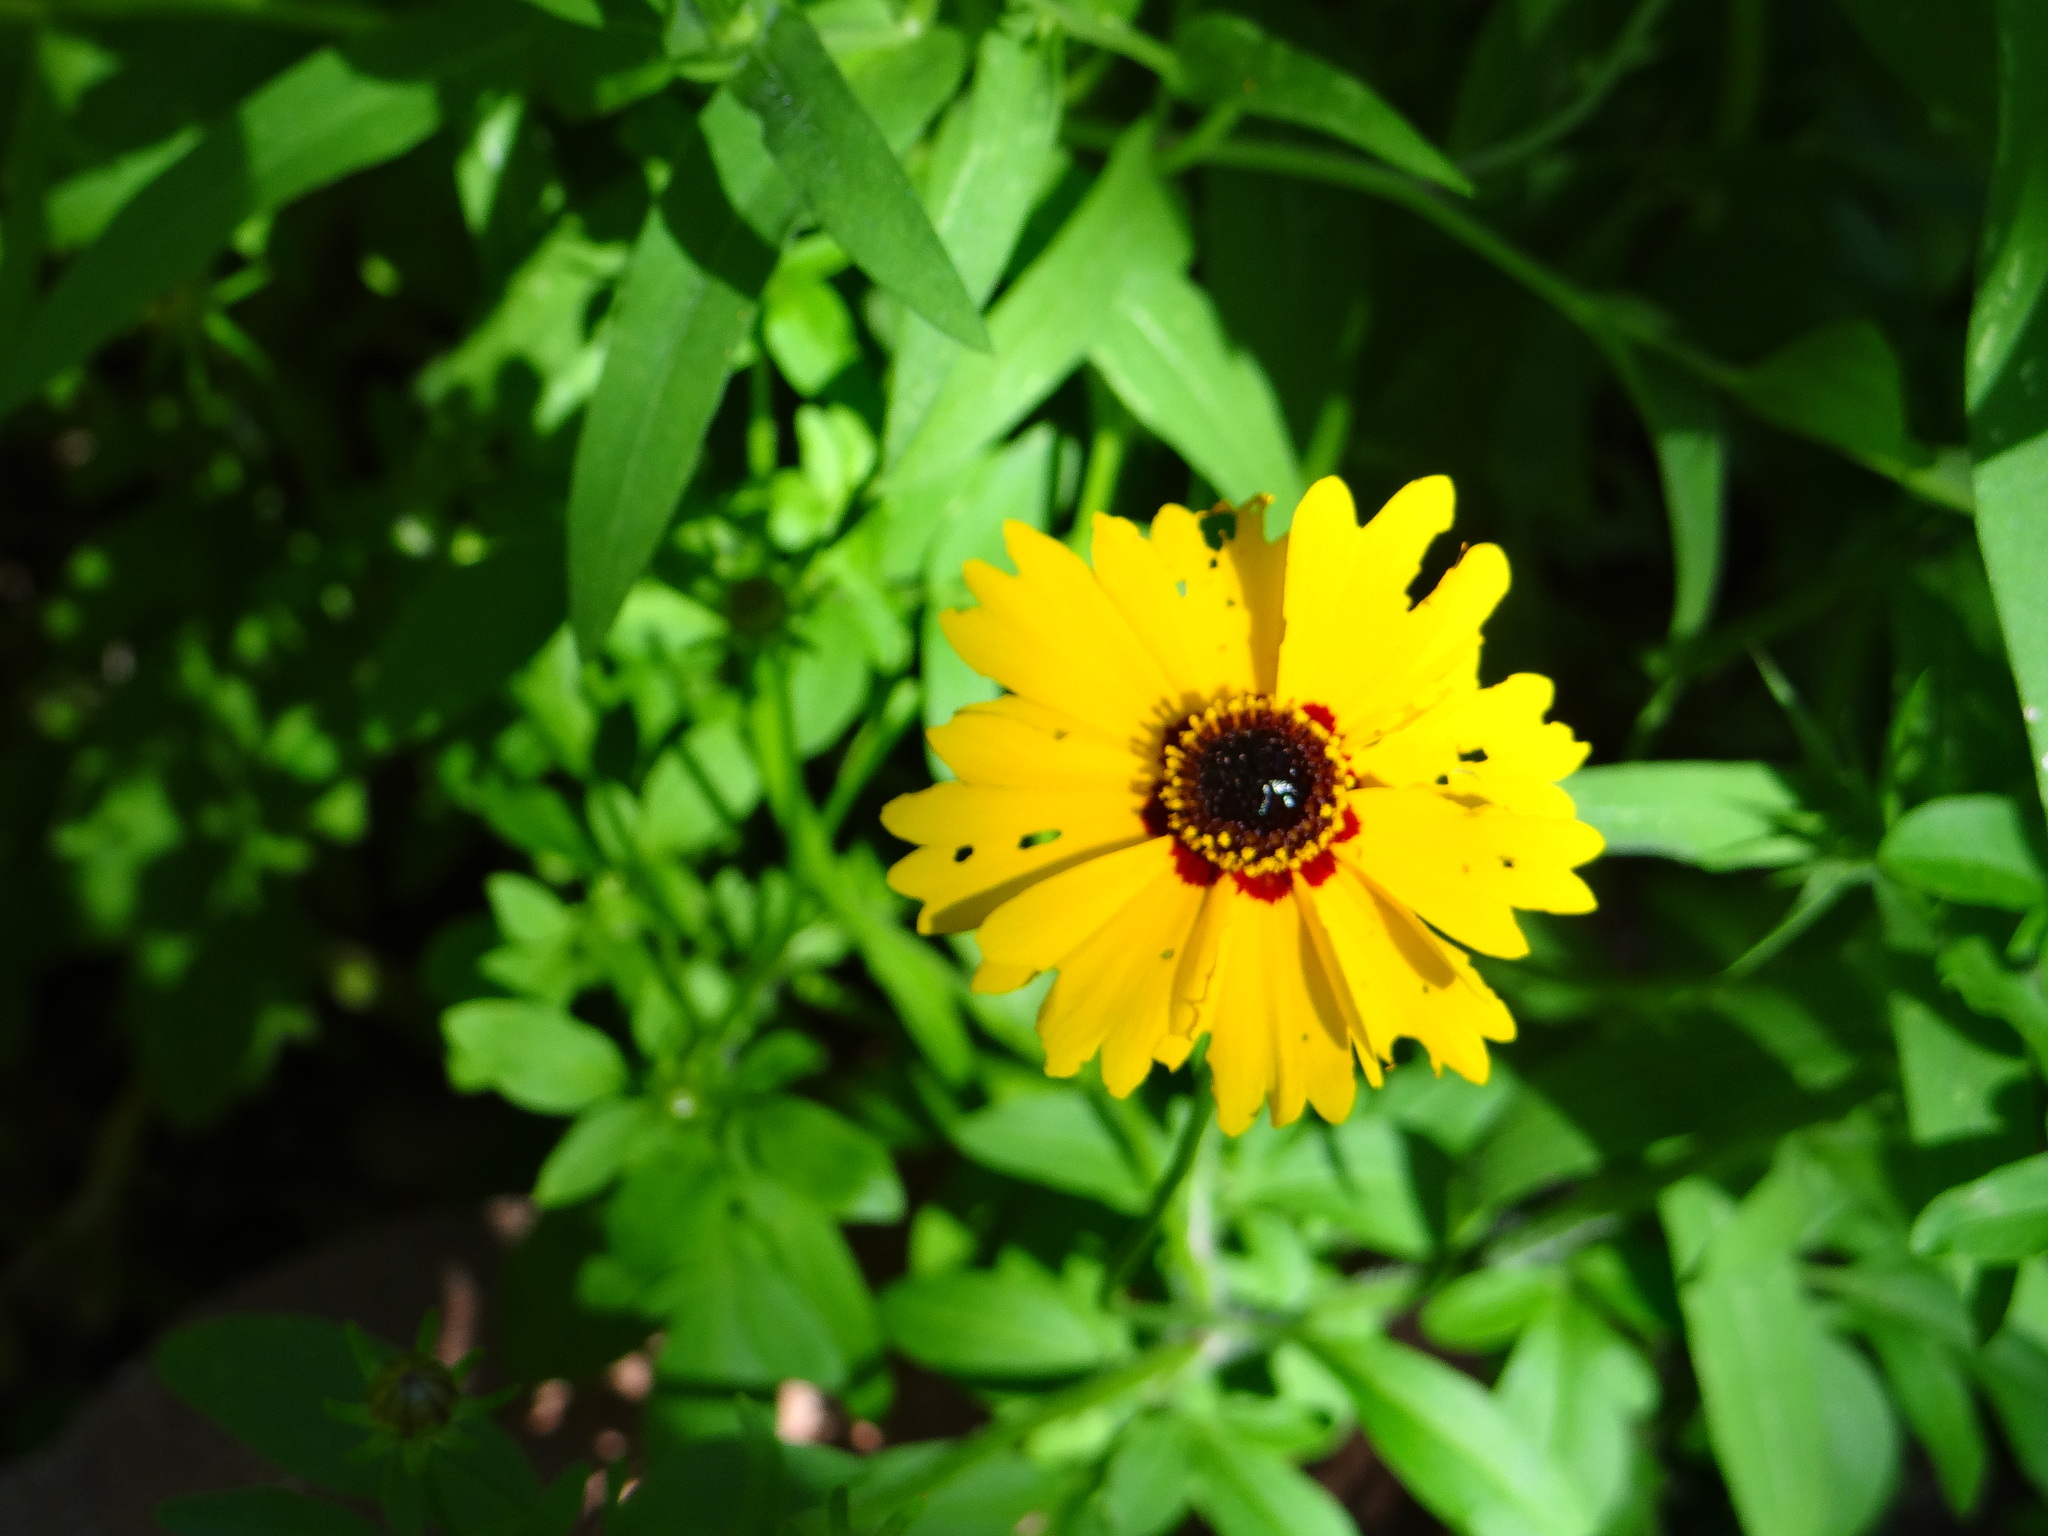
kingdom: Plantae
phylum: Tracheophyta
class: Magnoliopsida
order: Asterales
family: Asteraceae
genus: Coreopsis
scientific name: Coreopsis basalis
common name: Golden-mane coreopsis
